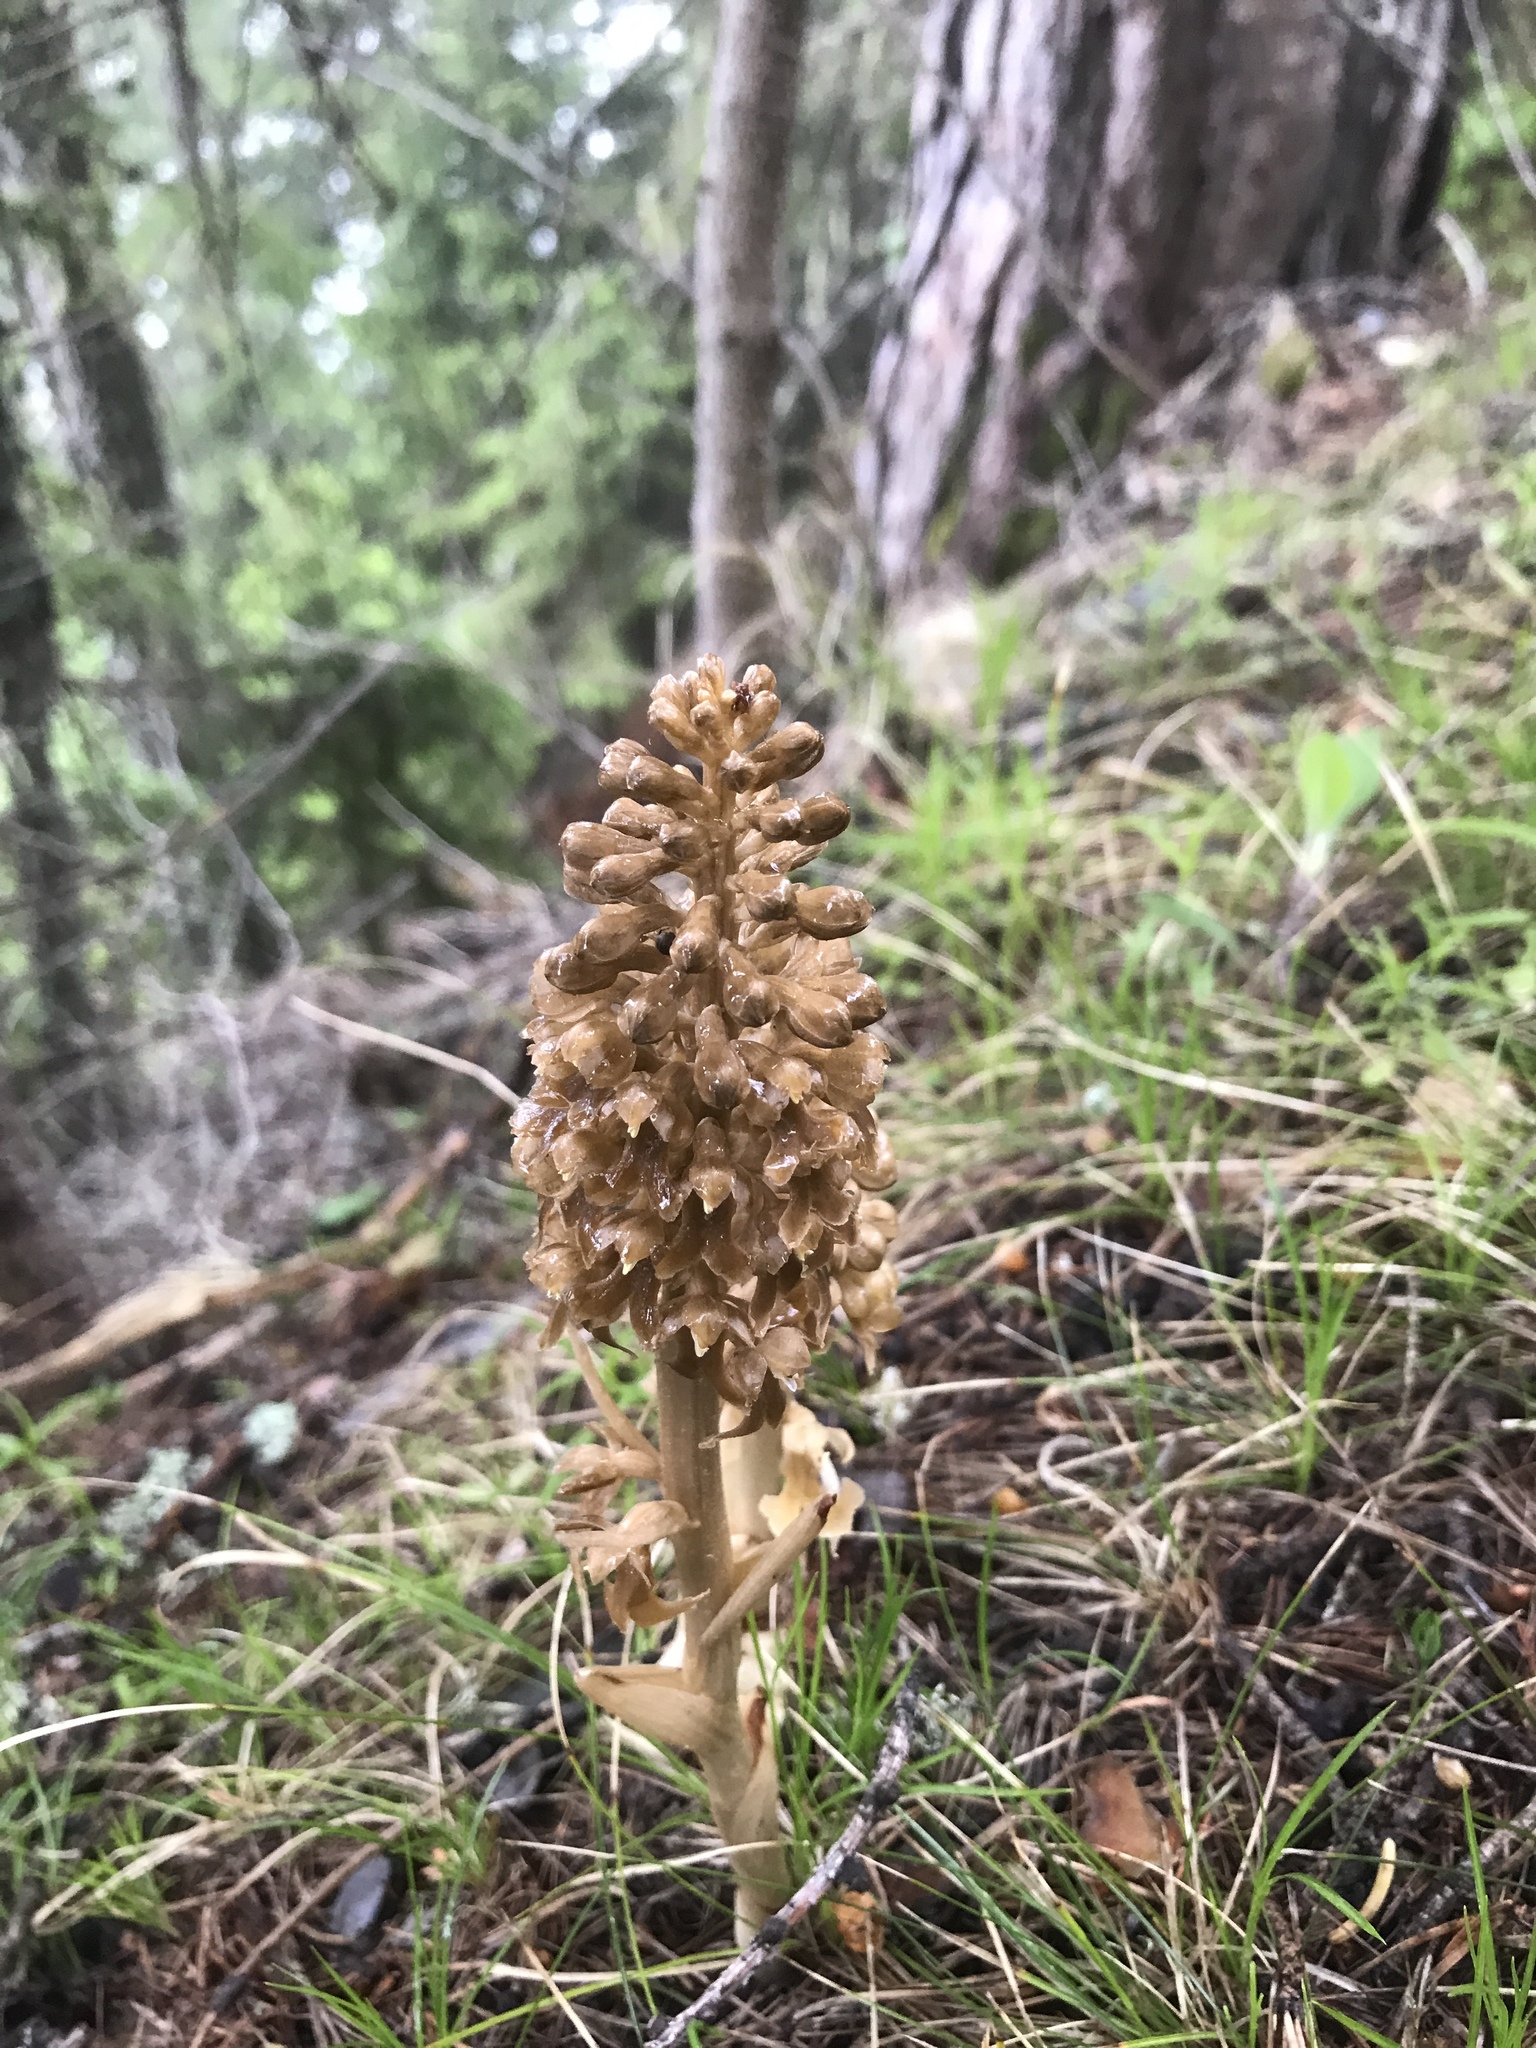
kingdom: Plantae
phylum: Tracheophyta
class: Liliopsida
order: Asparagales
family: Orchidaceae
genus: Neottia
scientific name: Neottia nidus-avis
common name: Bird's-nest orchid
